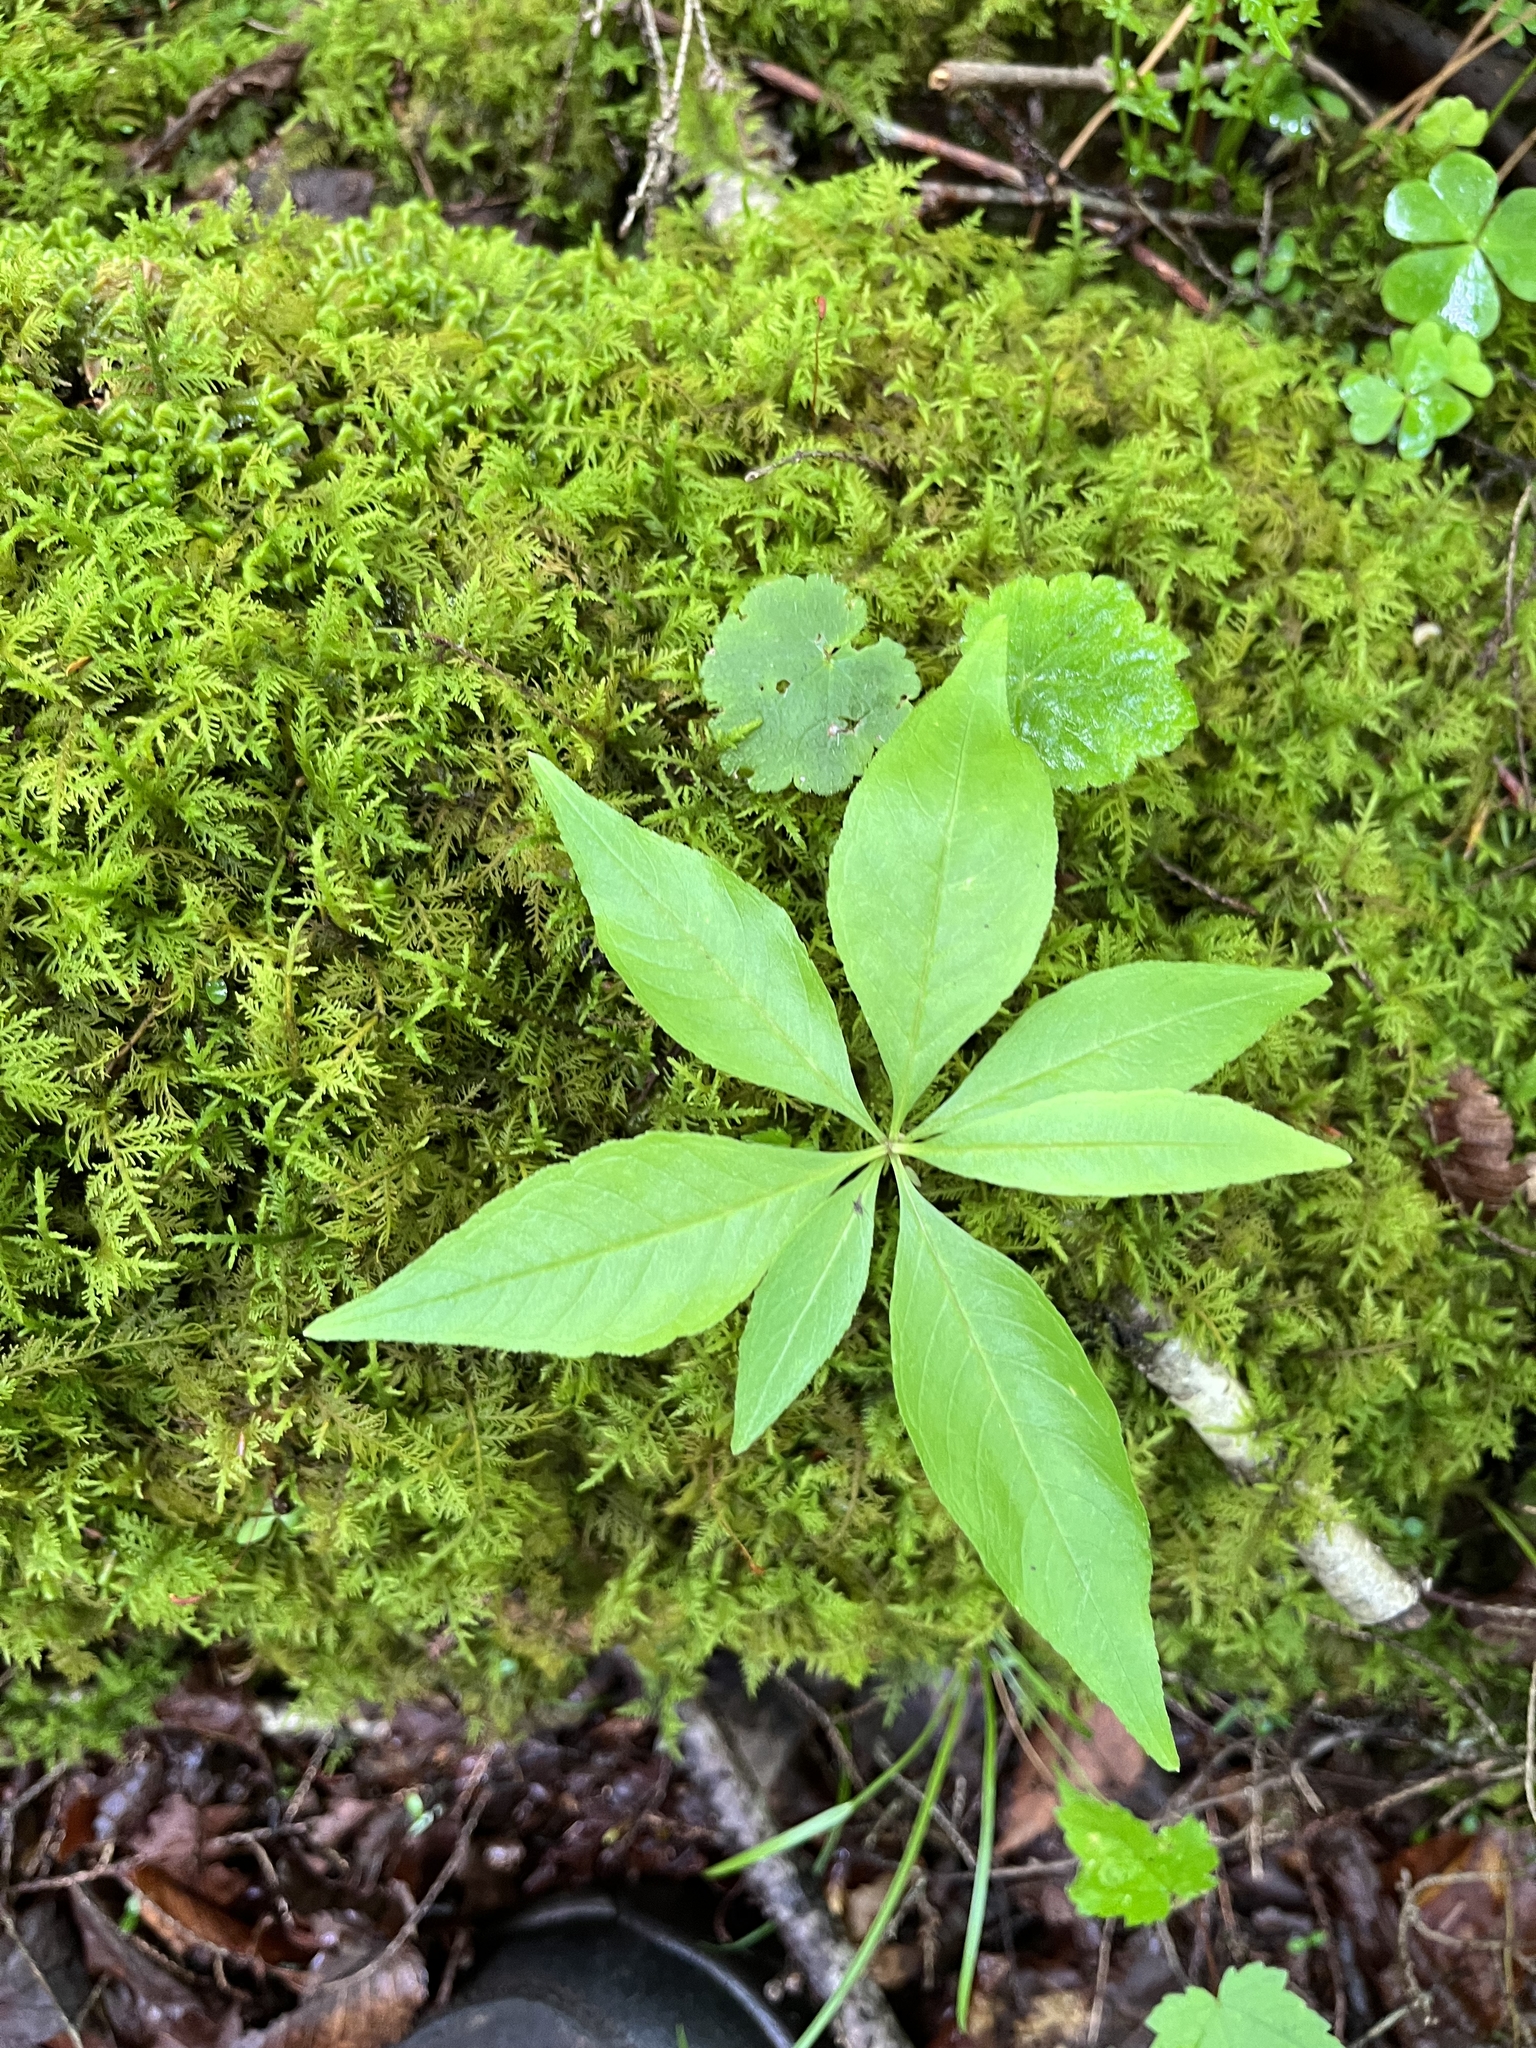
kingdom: Plantae
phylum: Tracheophyta
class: Magnoliopsida
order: Ericales
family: Primulaceae
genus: Lysimachia
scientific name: Lysimachia borealis
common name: American starflower
